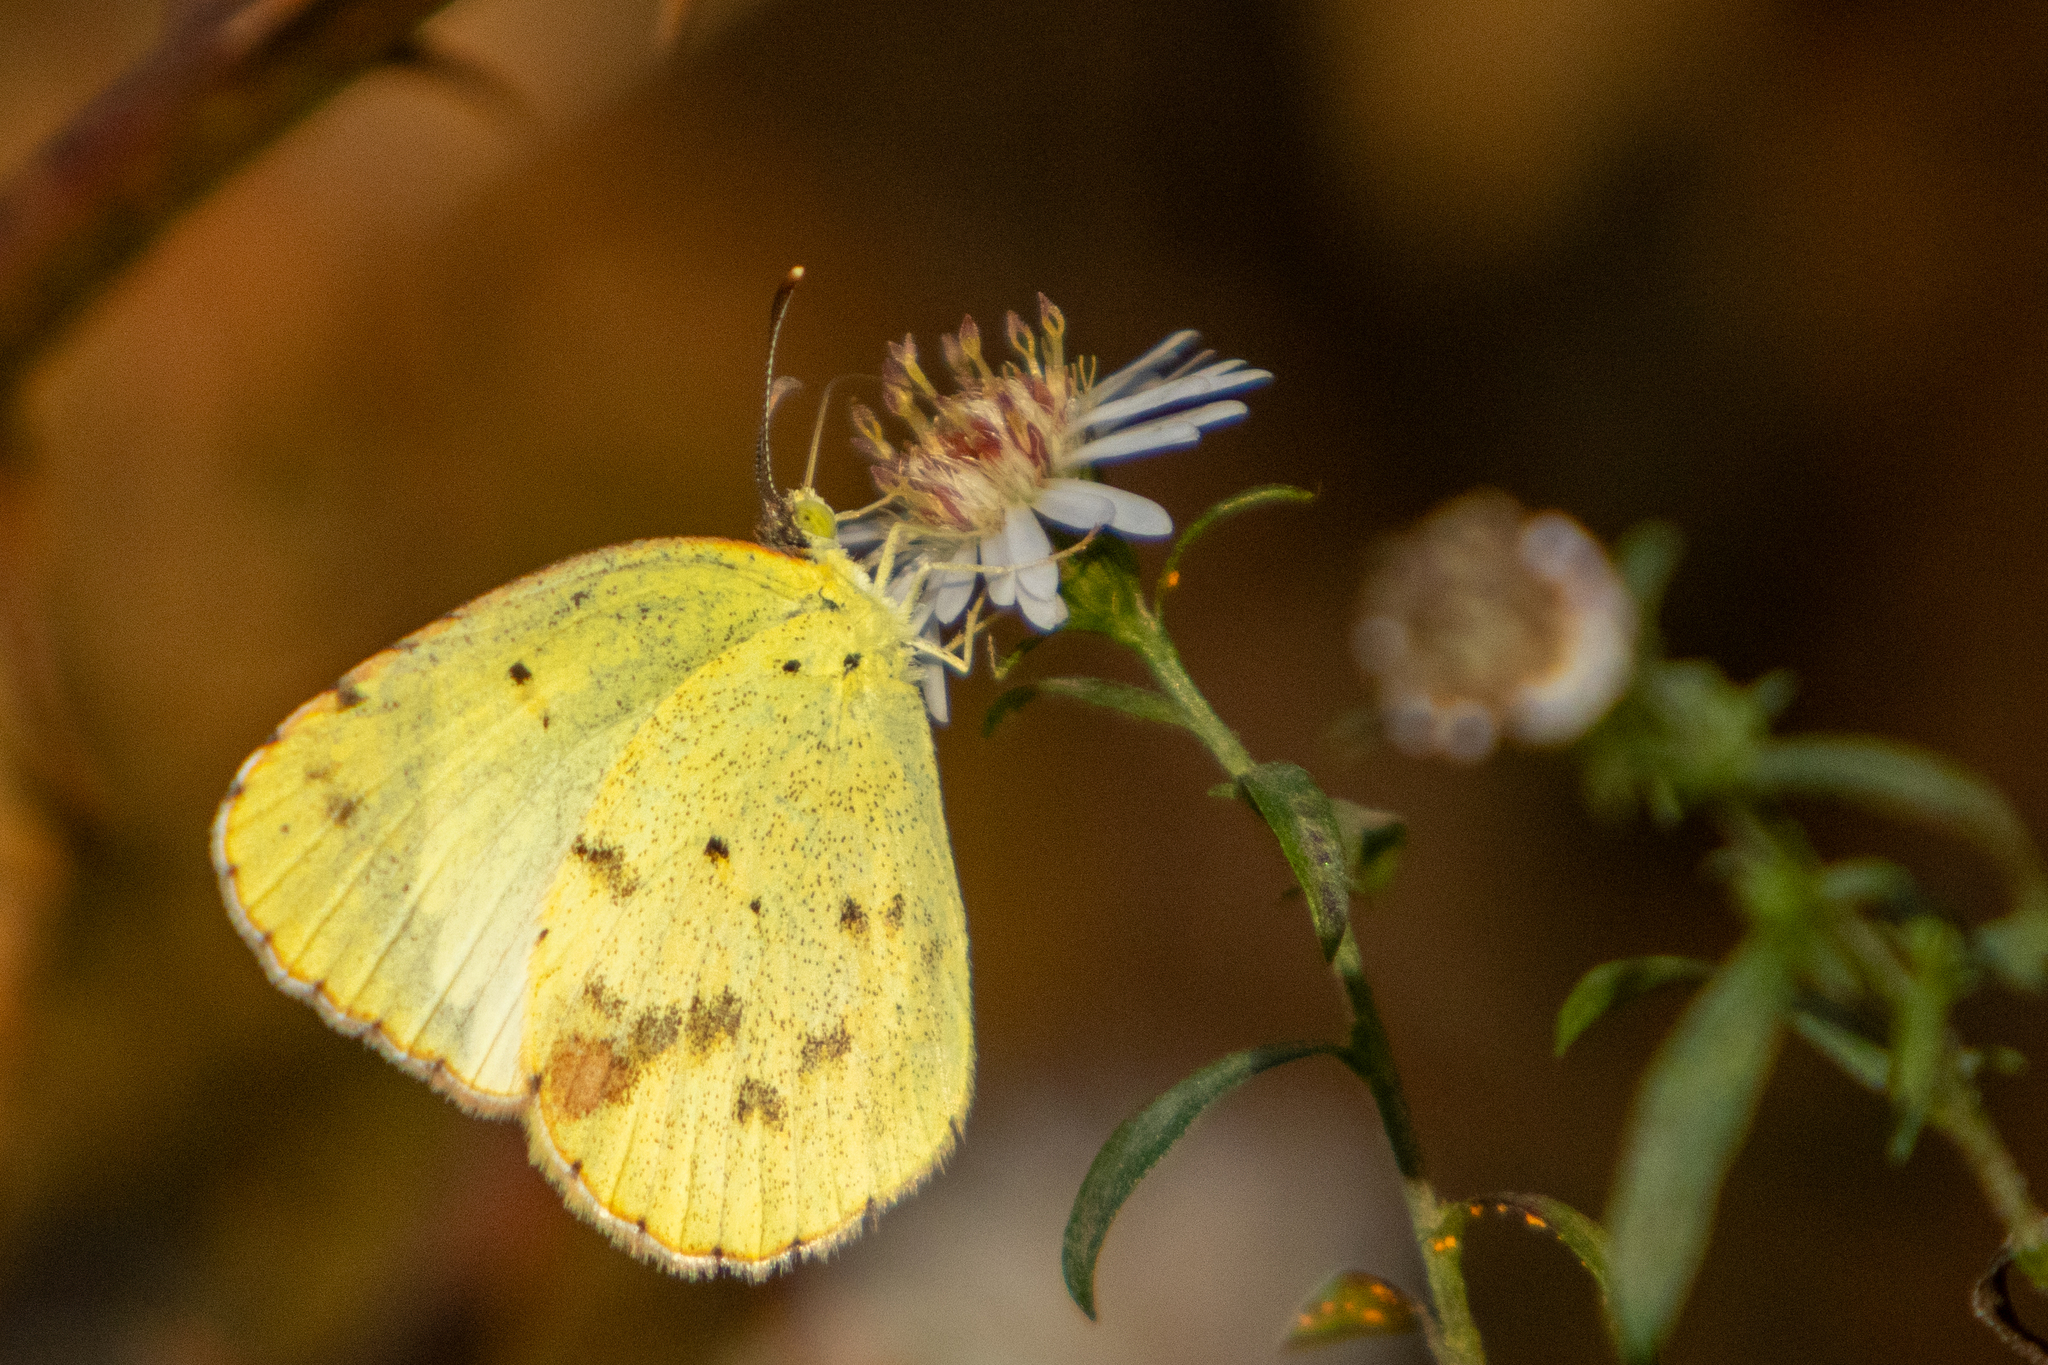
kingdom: Animalia
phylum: Arthropoda
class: Insecta
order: Lepidoptera
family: Pieridae
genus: Pyrisitia
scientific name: Pyrisitia lisa
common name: Little yellow
